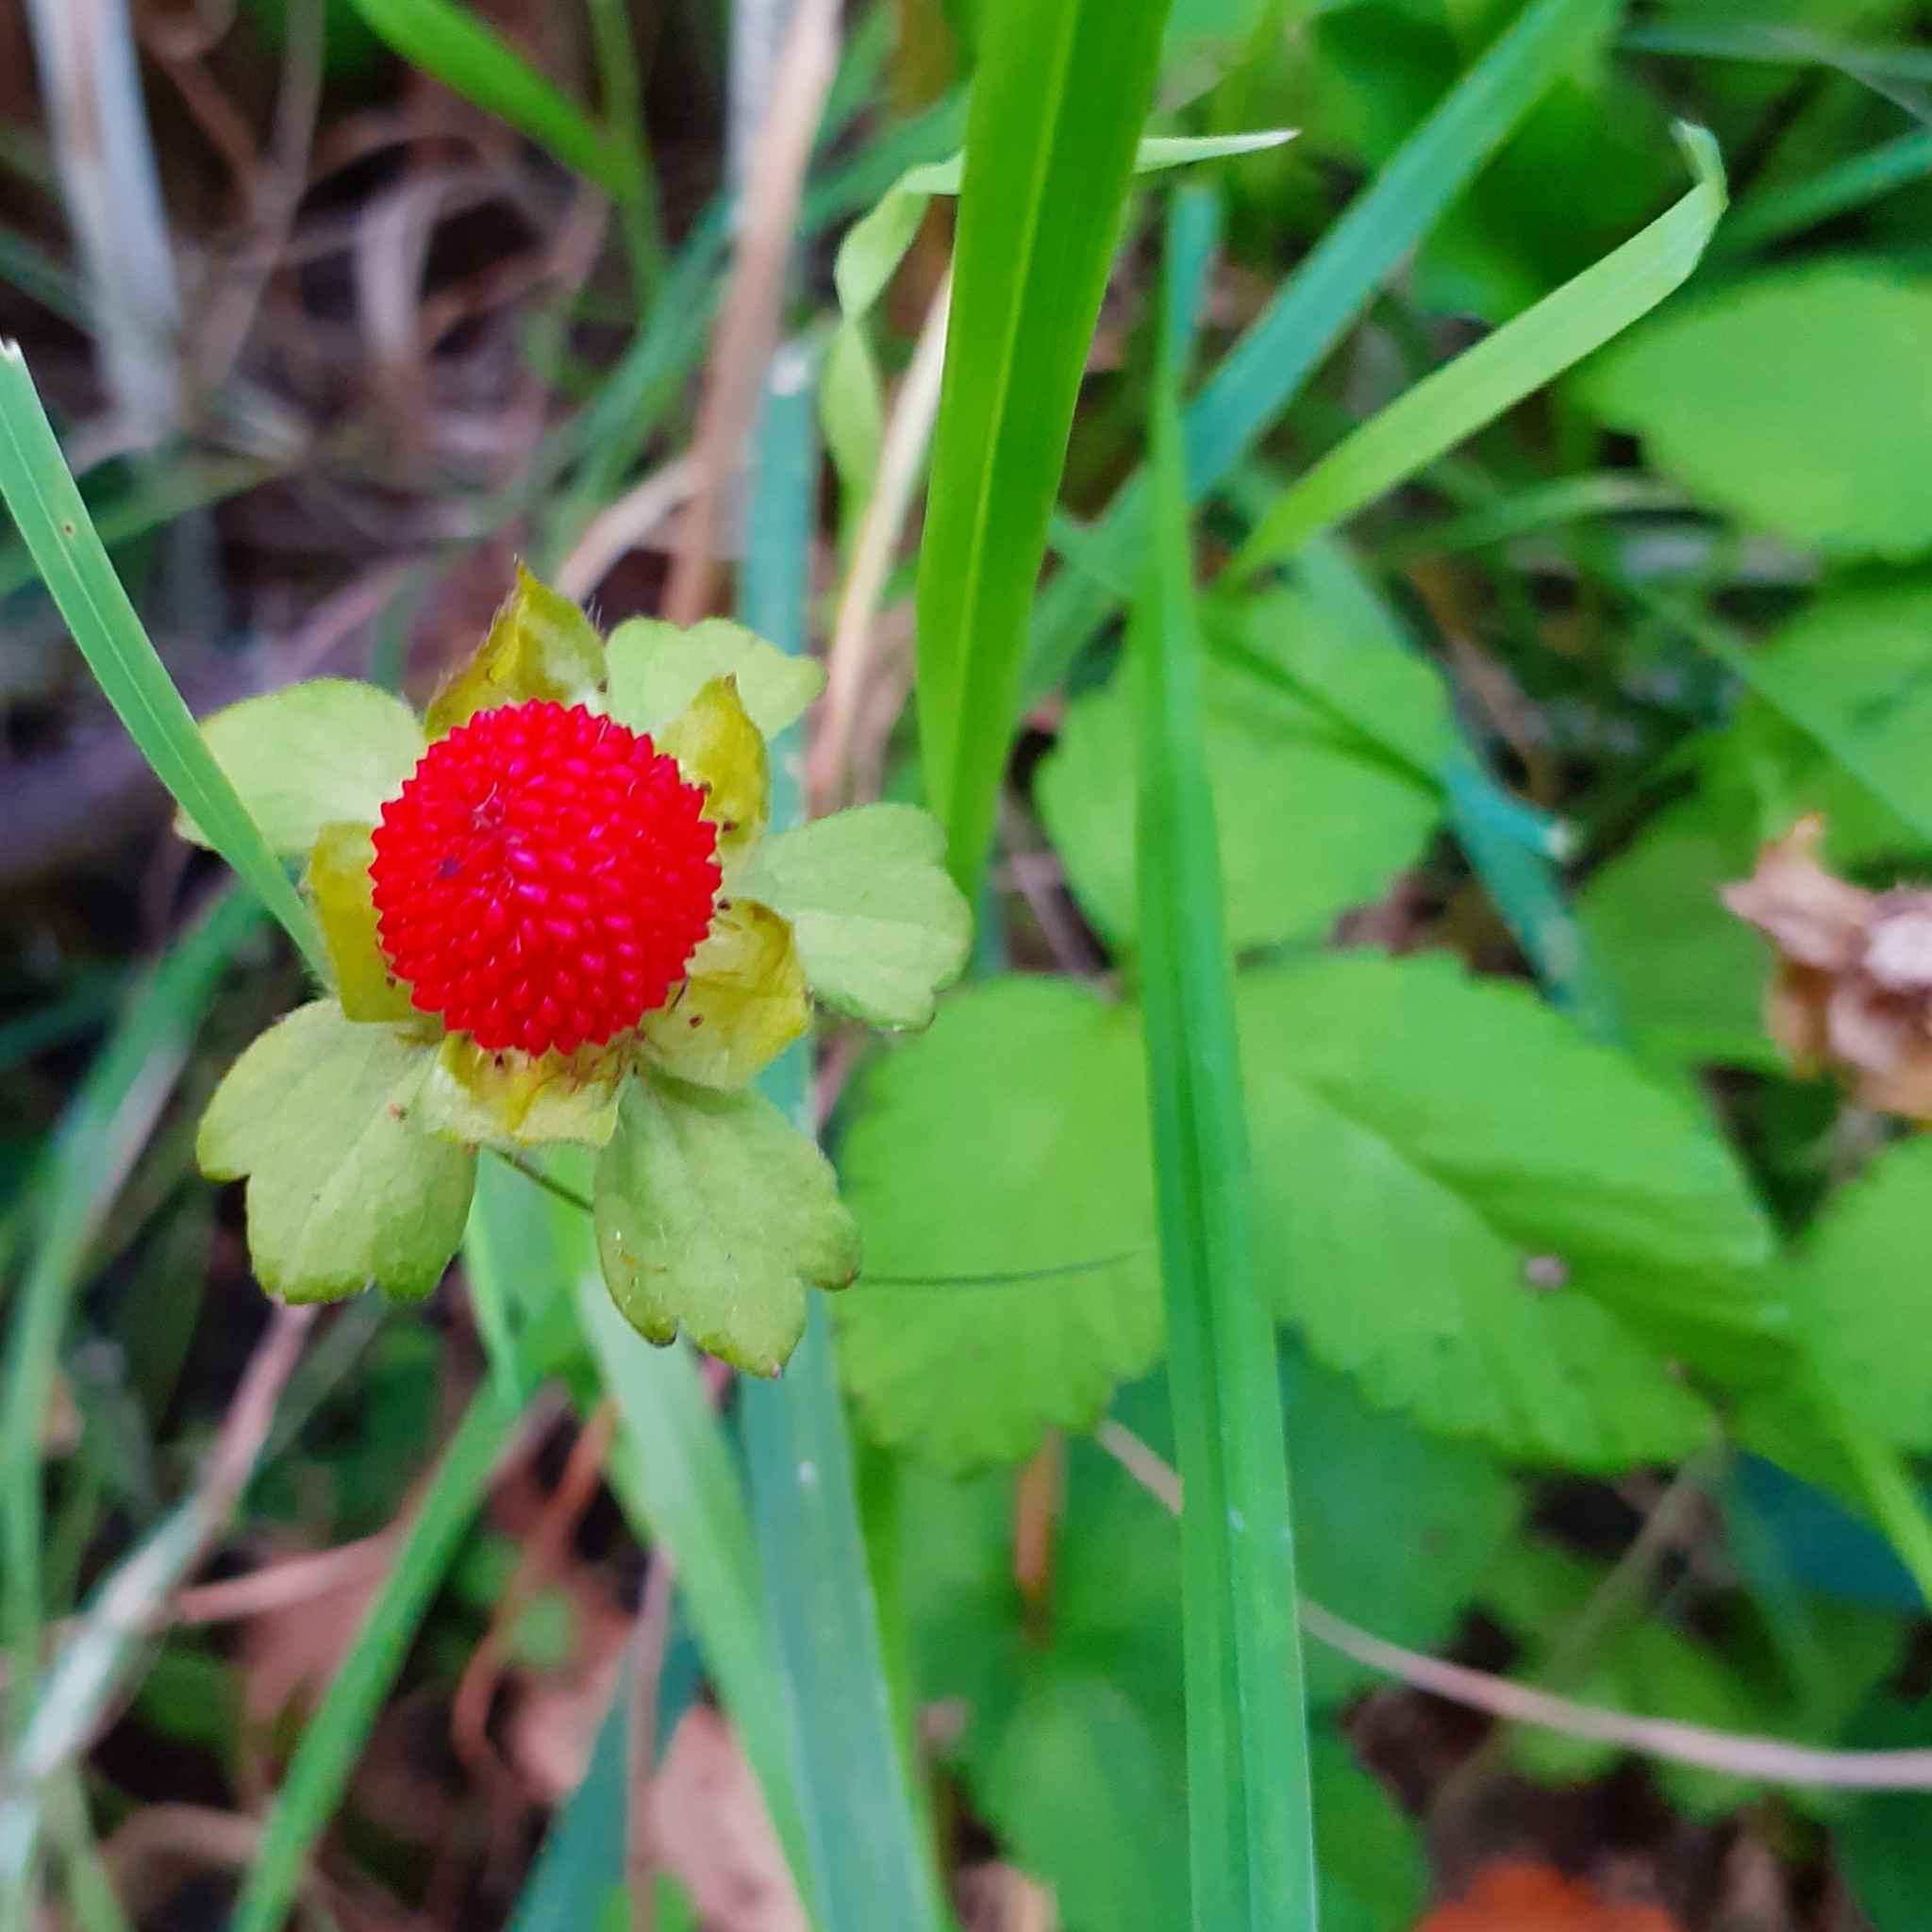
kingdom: Plantae
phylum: Tracheophyta
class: Magnoliopsida
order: Rosales
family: Rosaceae
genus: Potentilla
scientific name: Potentilla indica
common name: Yellow-flowered strawberry
